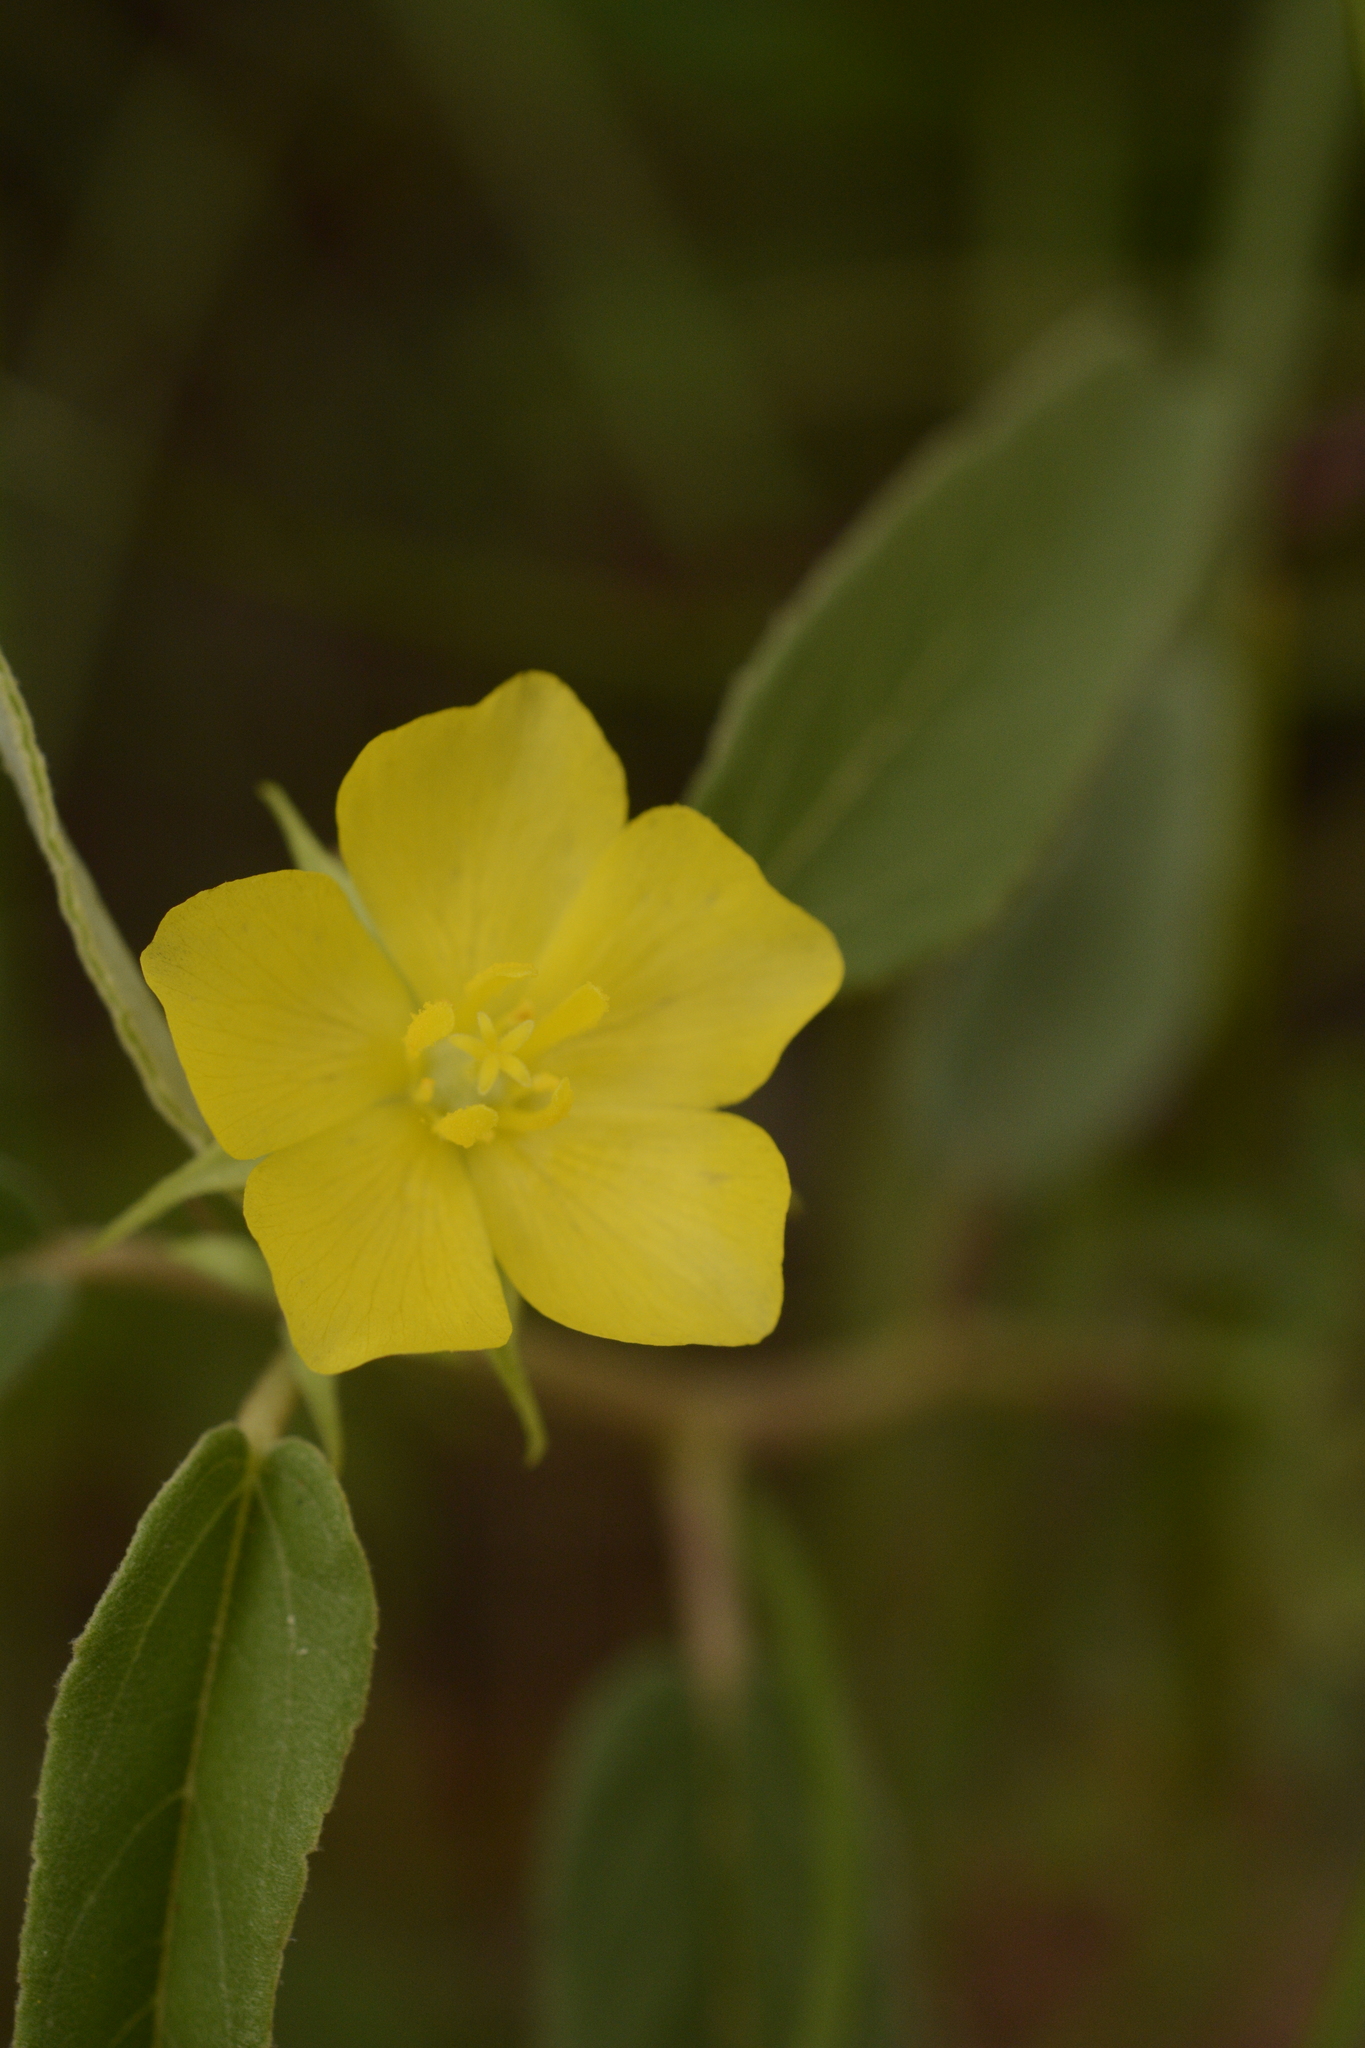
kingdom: Plantae
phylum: Tracheophyta
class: Magnoliopsida
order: Malvales
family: Malvaceae
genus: Melhania
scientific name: Melhania incana
